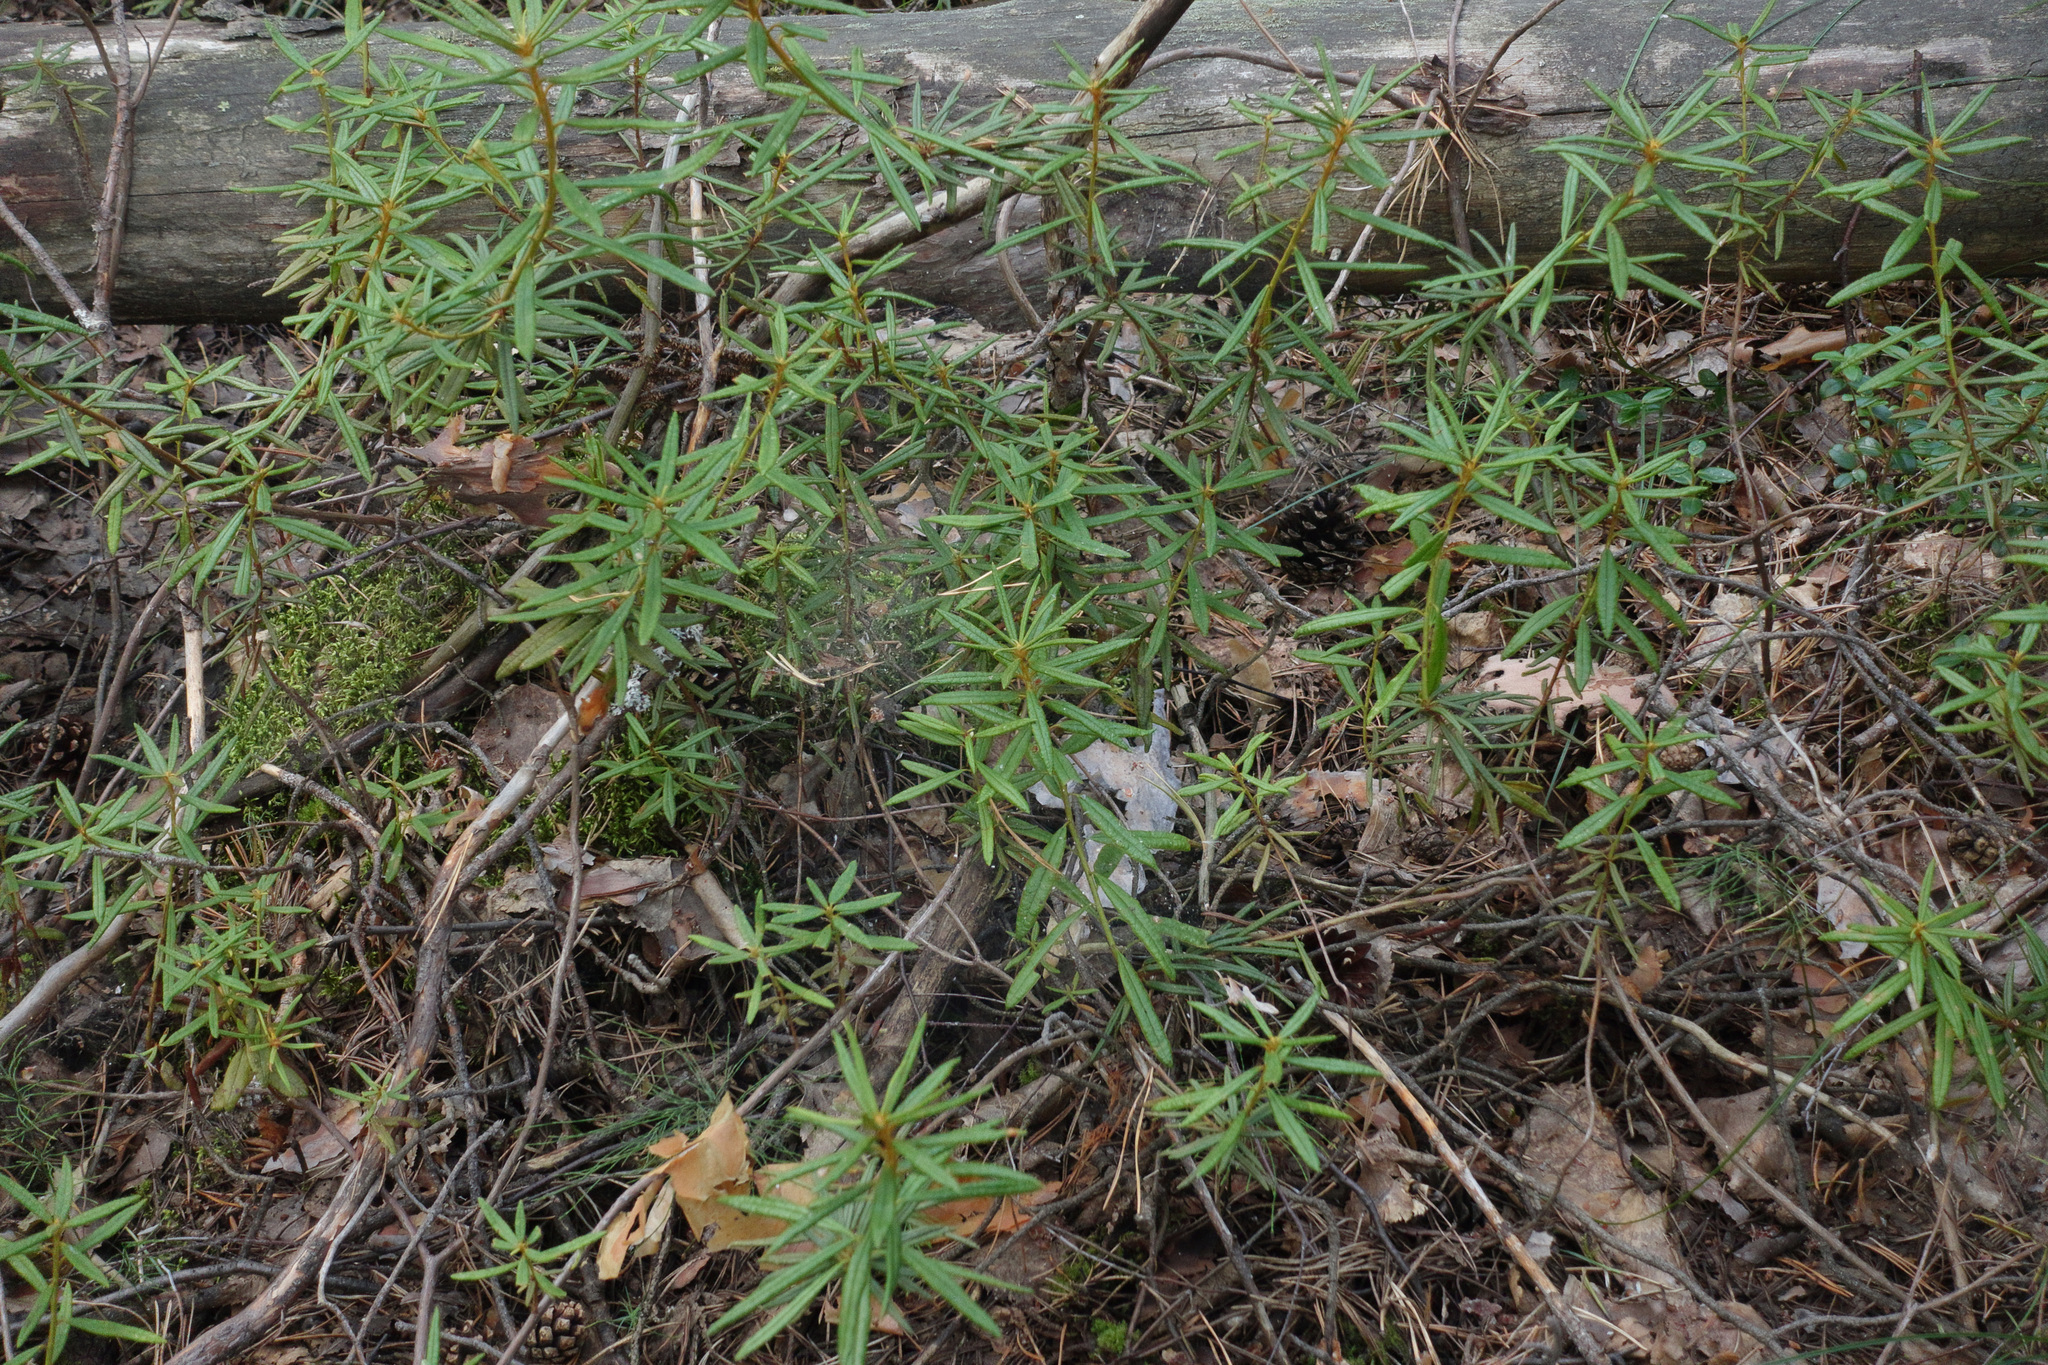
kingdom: Plantae
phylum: Tracheophyta
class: Magnoliopsida
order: Ericales
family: Ericaceae
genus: Rhododendron
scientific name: Rhododendron tomentosum
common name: Marsh labrador tea
